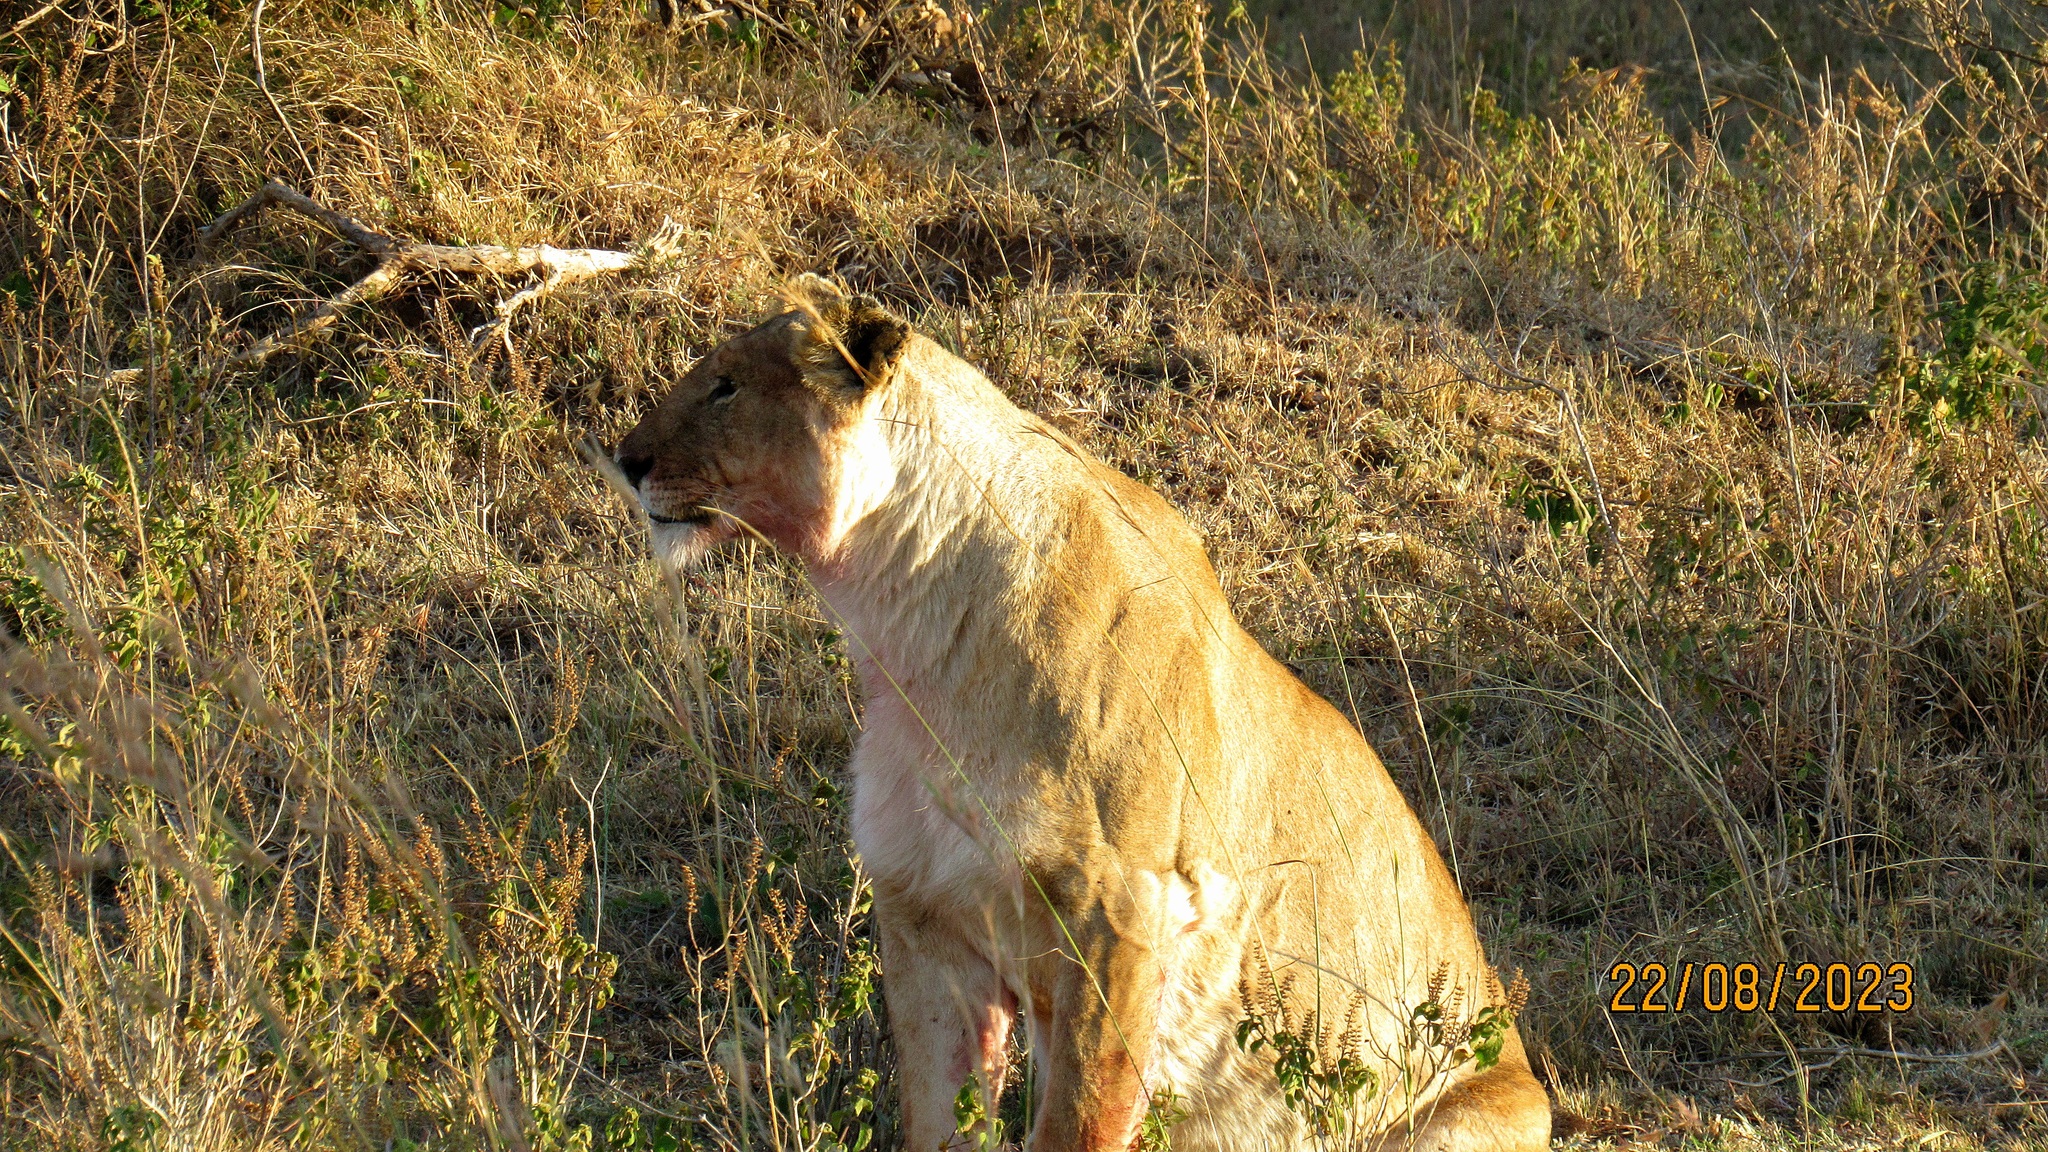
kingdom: Animalia
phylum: Chordata
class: Mammalia
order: Carnivora
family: Felidae
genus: Panthera
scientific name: Panthera leo
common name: Lion
